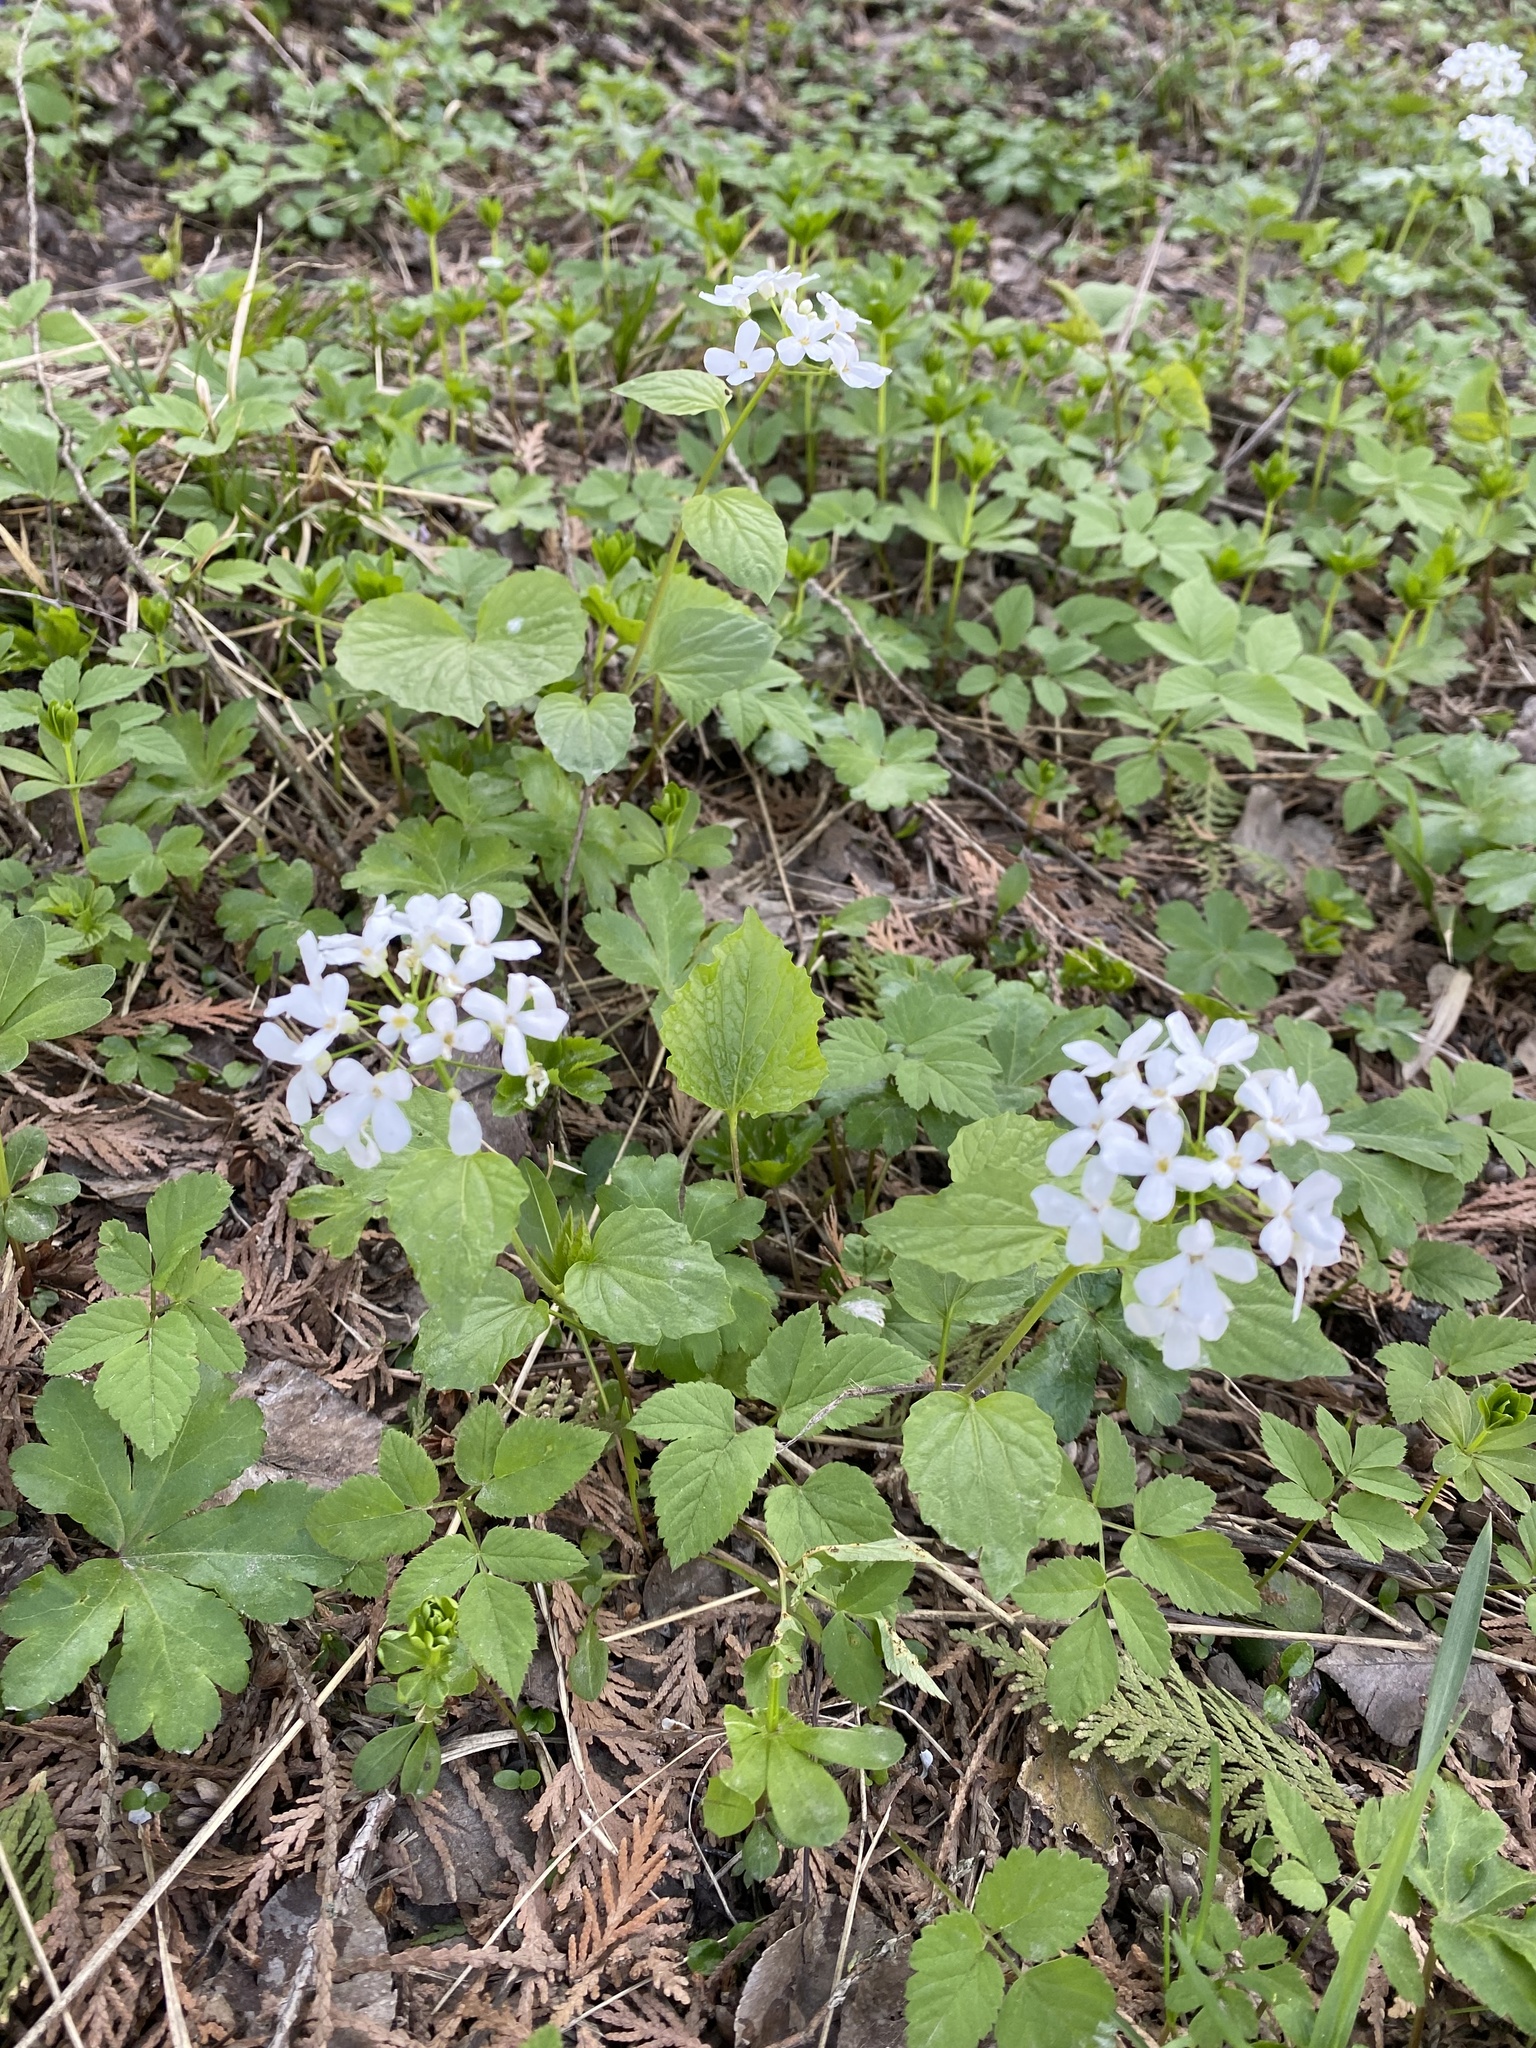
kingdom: Plantae
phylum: Tracheophyta
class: Magnoliopsida
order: Brassicales
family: Brassicaceae
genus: Pachyphragma
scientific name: Pachyphragma macrophyllum
